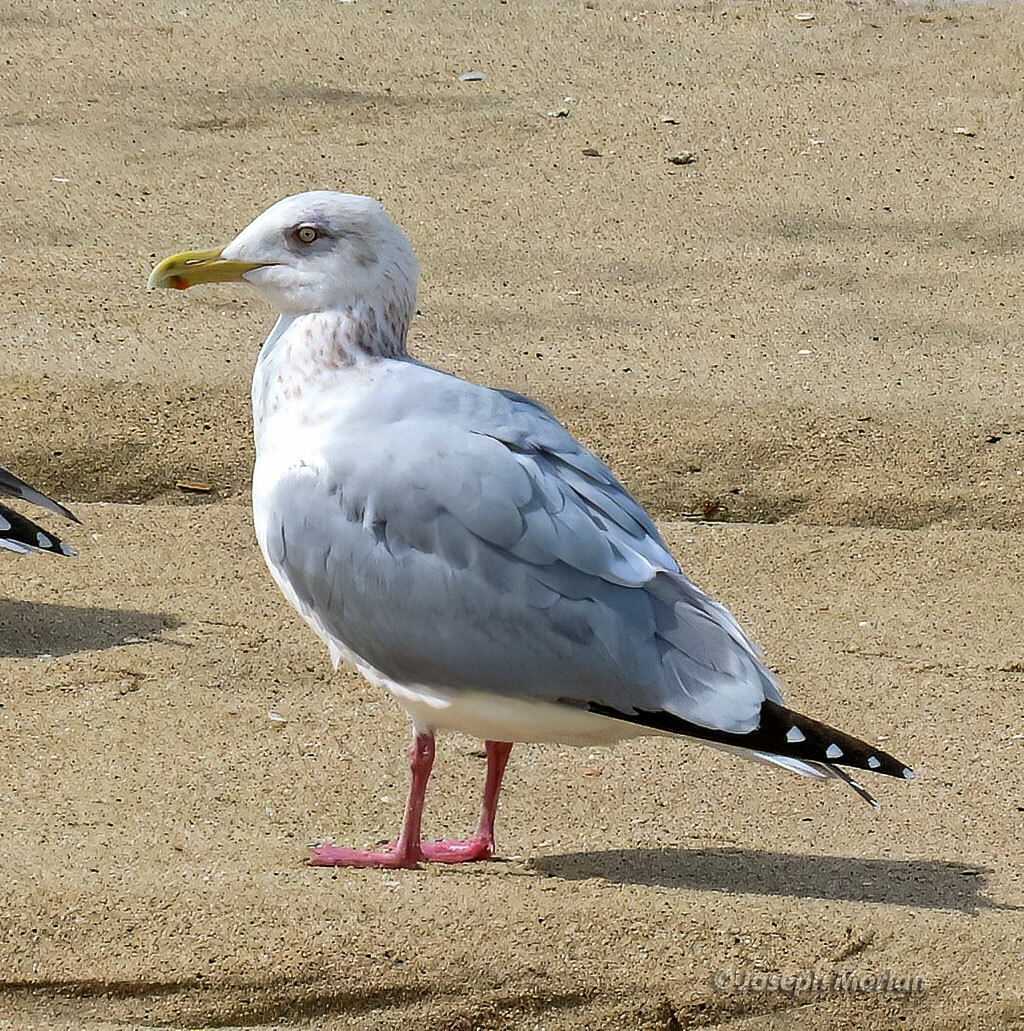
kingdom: Animalia
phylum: Chordata
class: Aves
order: Charadriiformes
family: Laridae
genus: Larus
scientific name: Larus argentatus
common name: Herring gull
